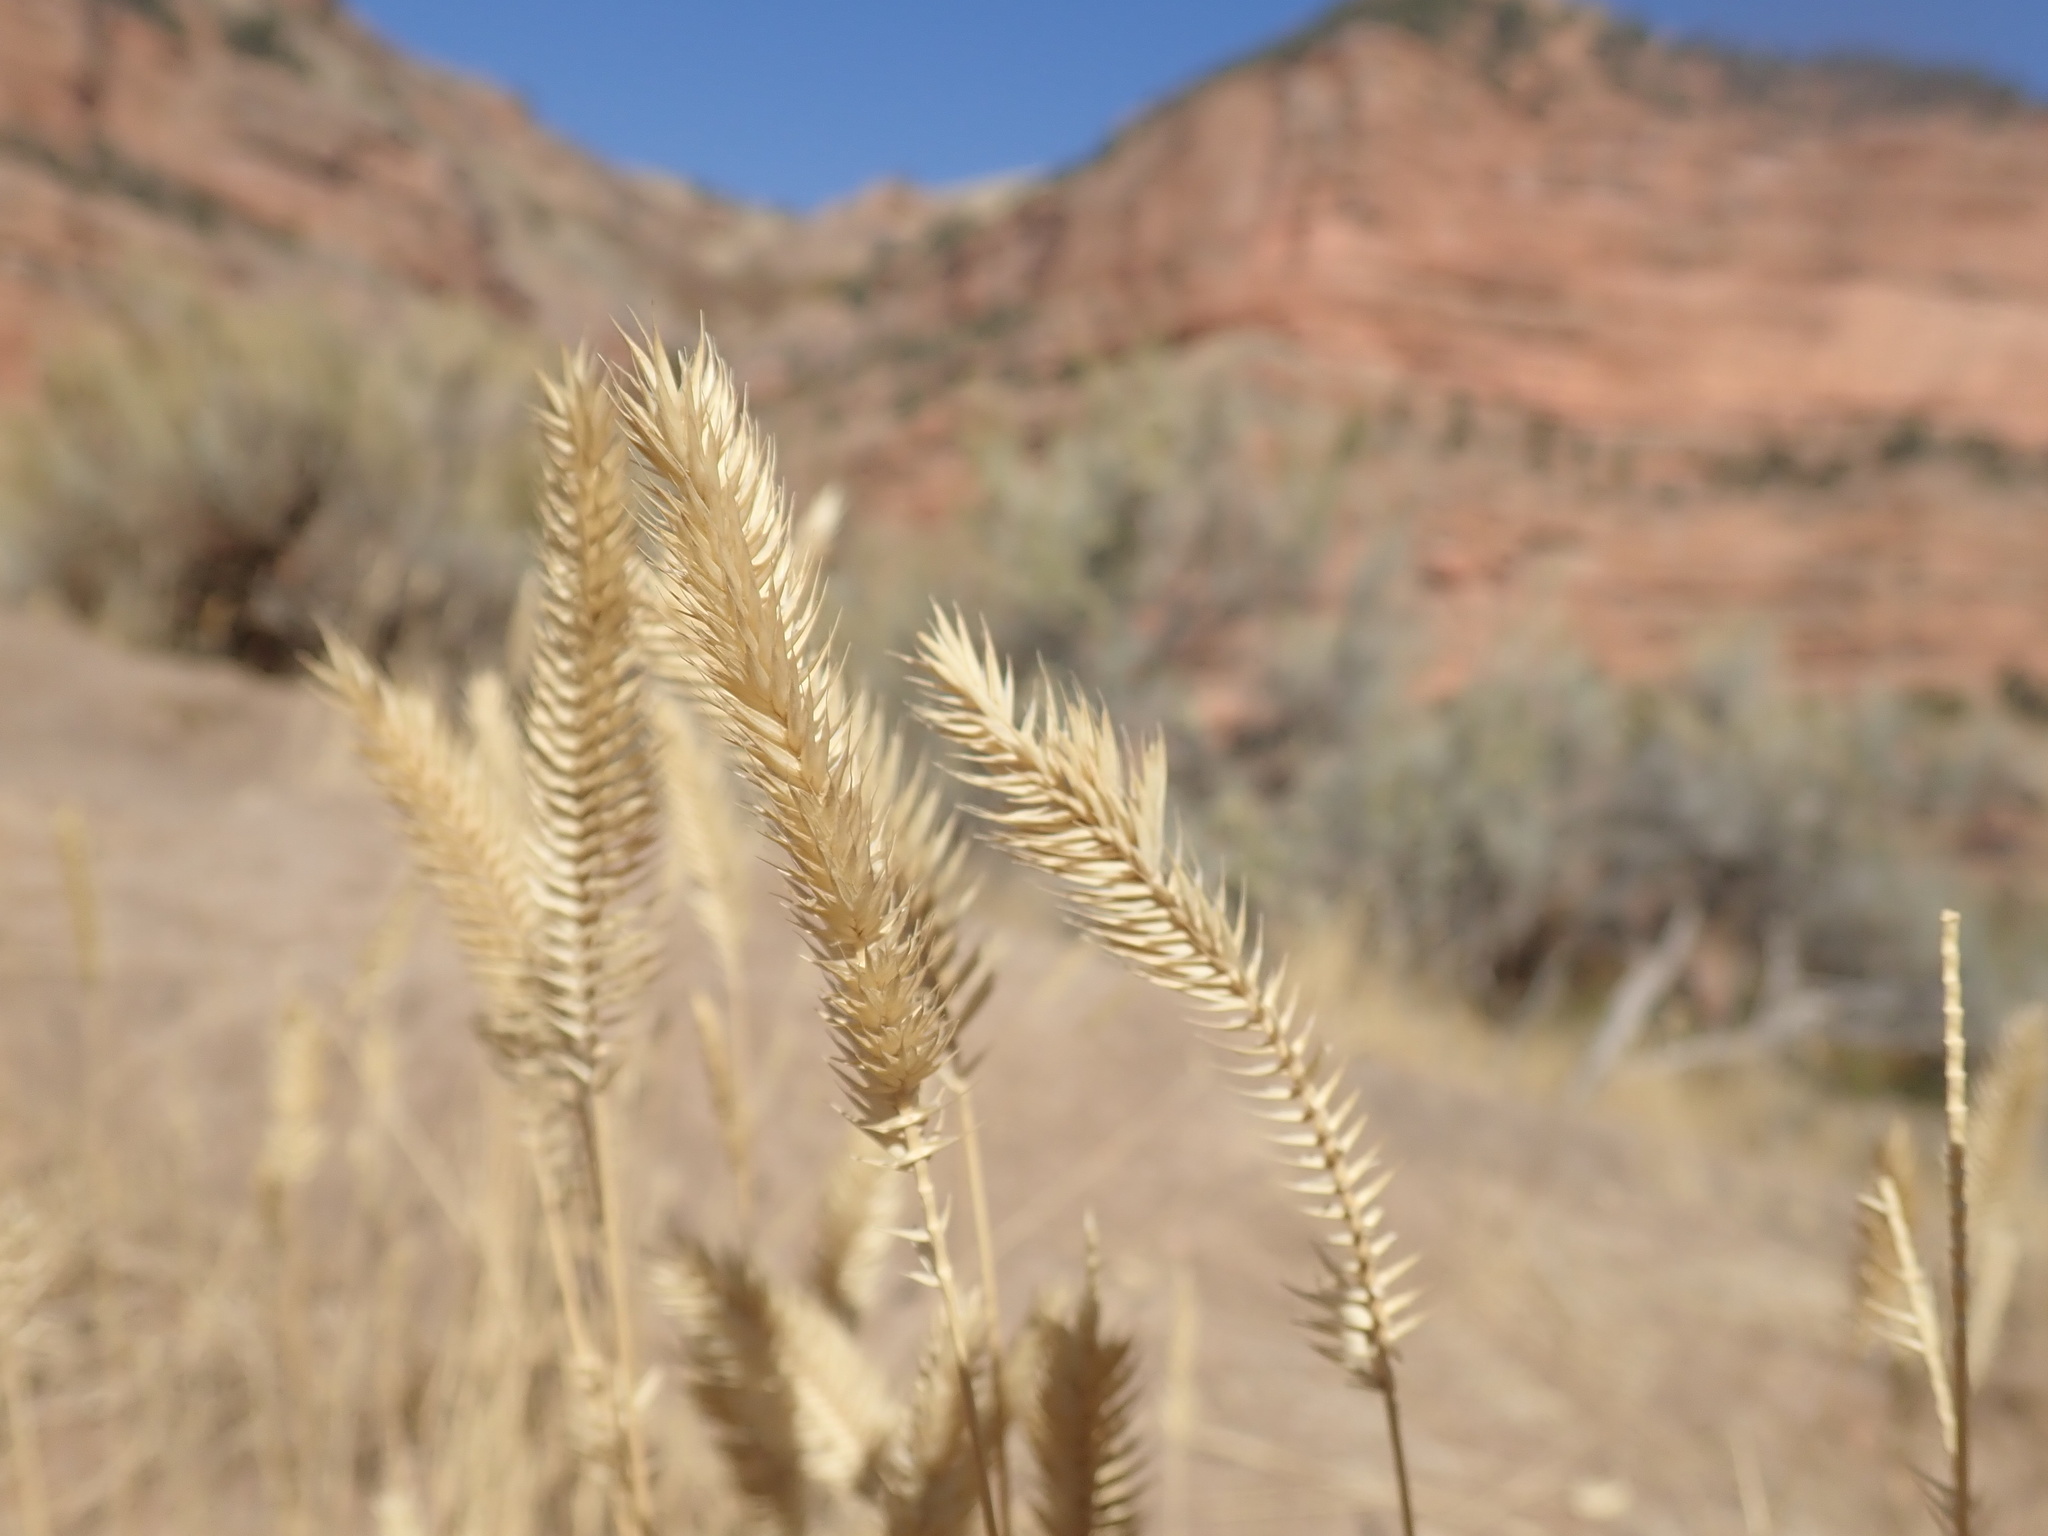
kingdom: Plantae
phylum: Tracheophyta
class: Liliopsida
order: Poales
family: Poaceae
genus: Agropyron
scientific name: Agropyron cristatum
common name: Crested wheatgrass
